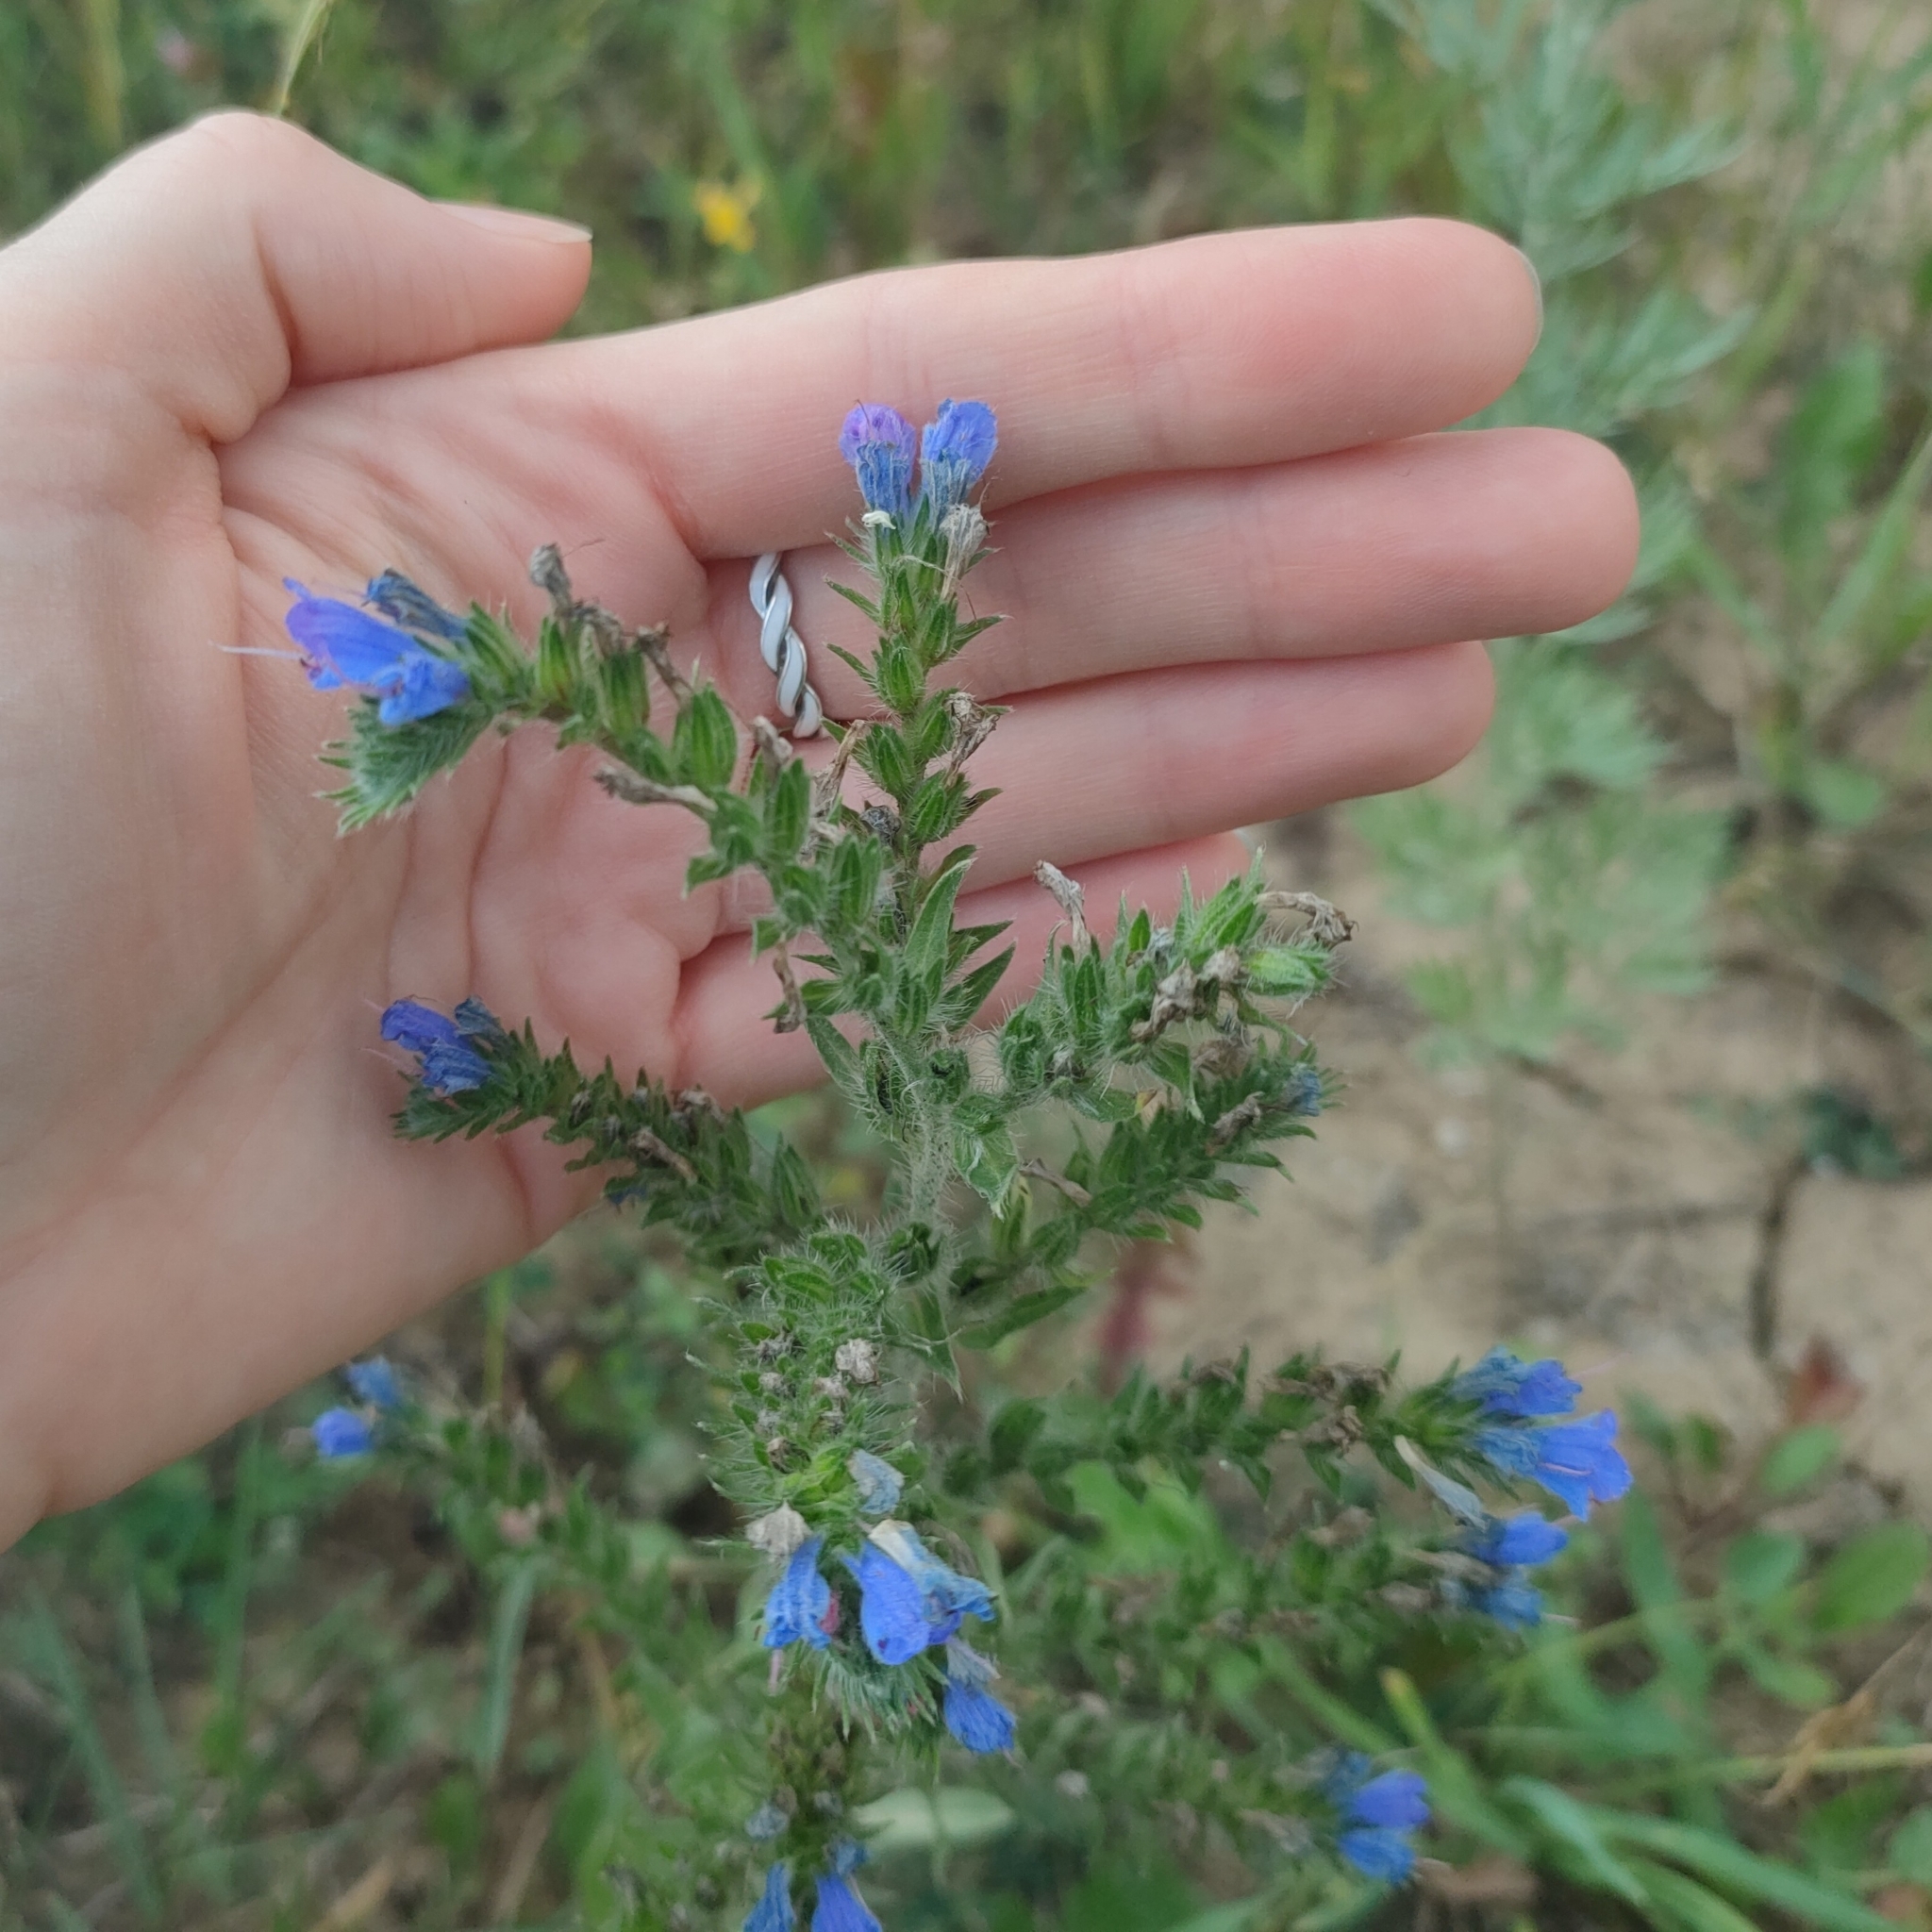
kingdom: Plantae
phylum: Tracheophyta
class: Magnoliopsida
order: Boraginales
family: Boraginaceae
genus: Echium
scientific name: Echium vulgare
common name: Common viper's bugloss
